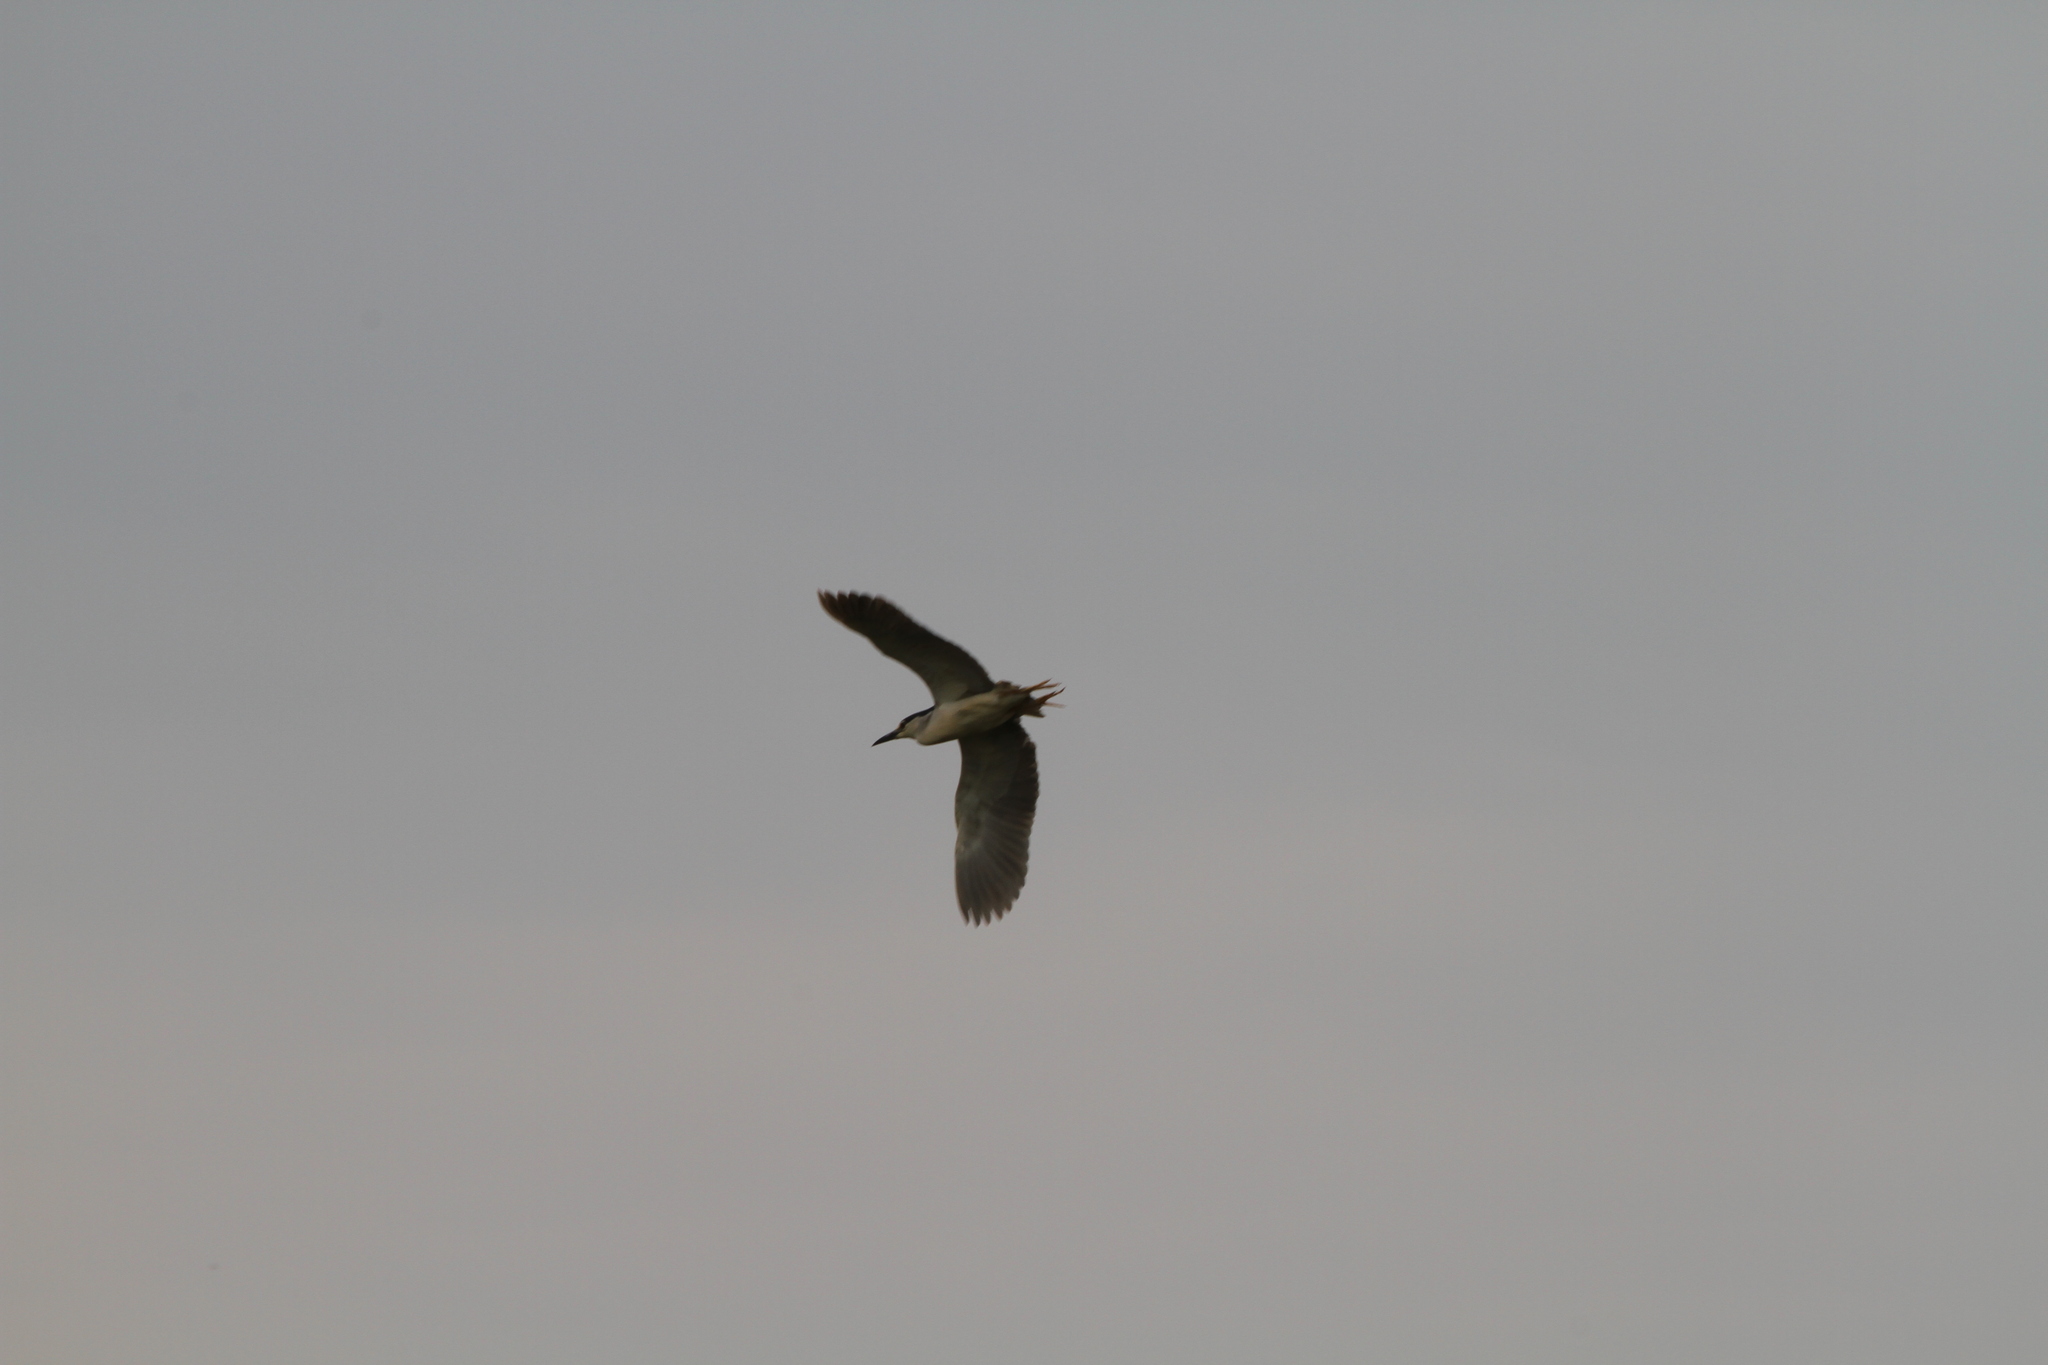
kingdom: Animalia
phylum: Chordata
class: Aves
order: Pelecaniformes
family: Ardeidae
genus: Nycticorax
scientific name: Nycticorax nycticorax
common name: Black-crowned night heron
